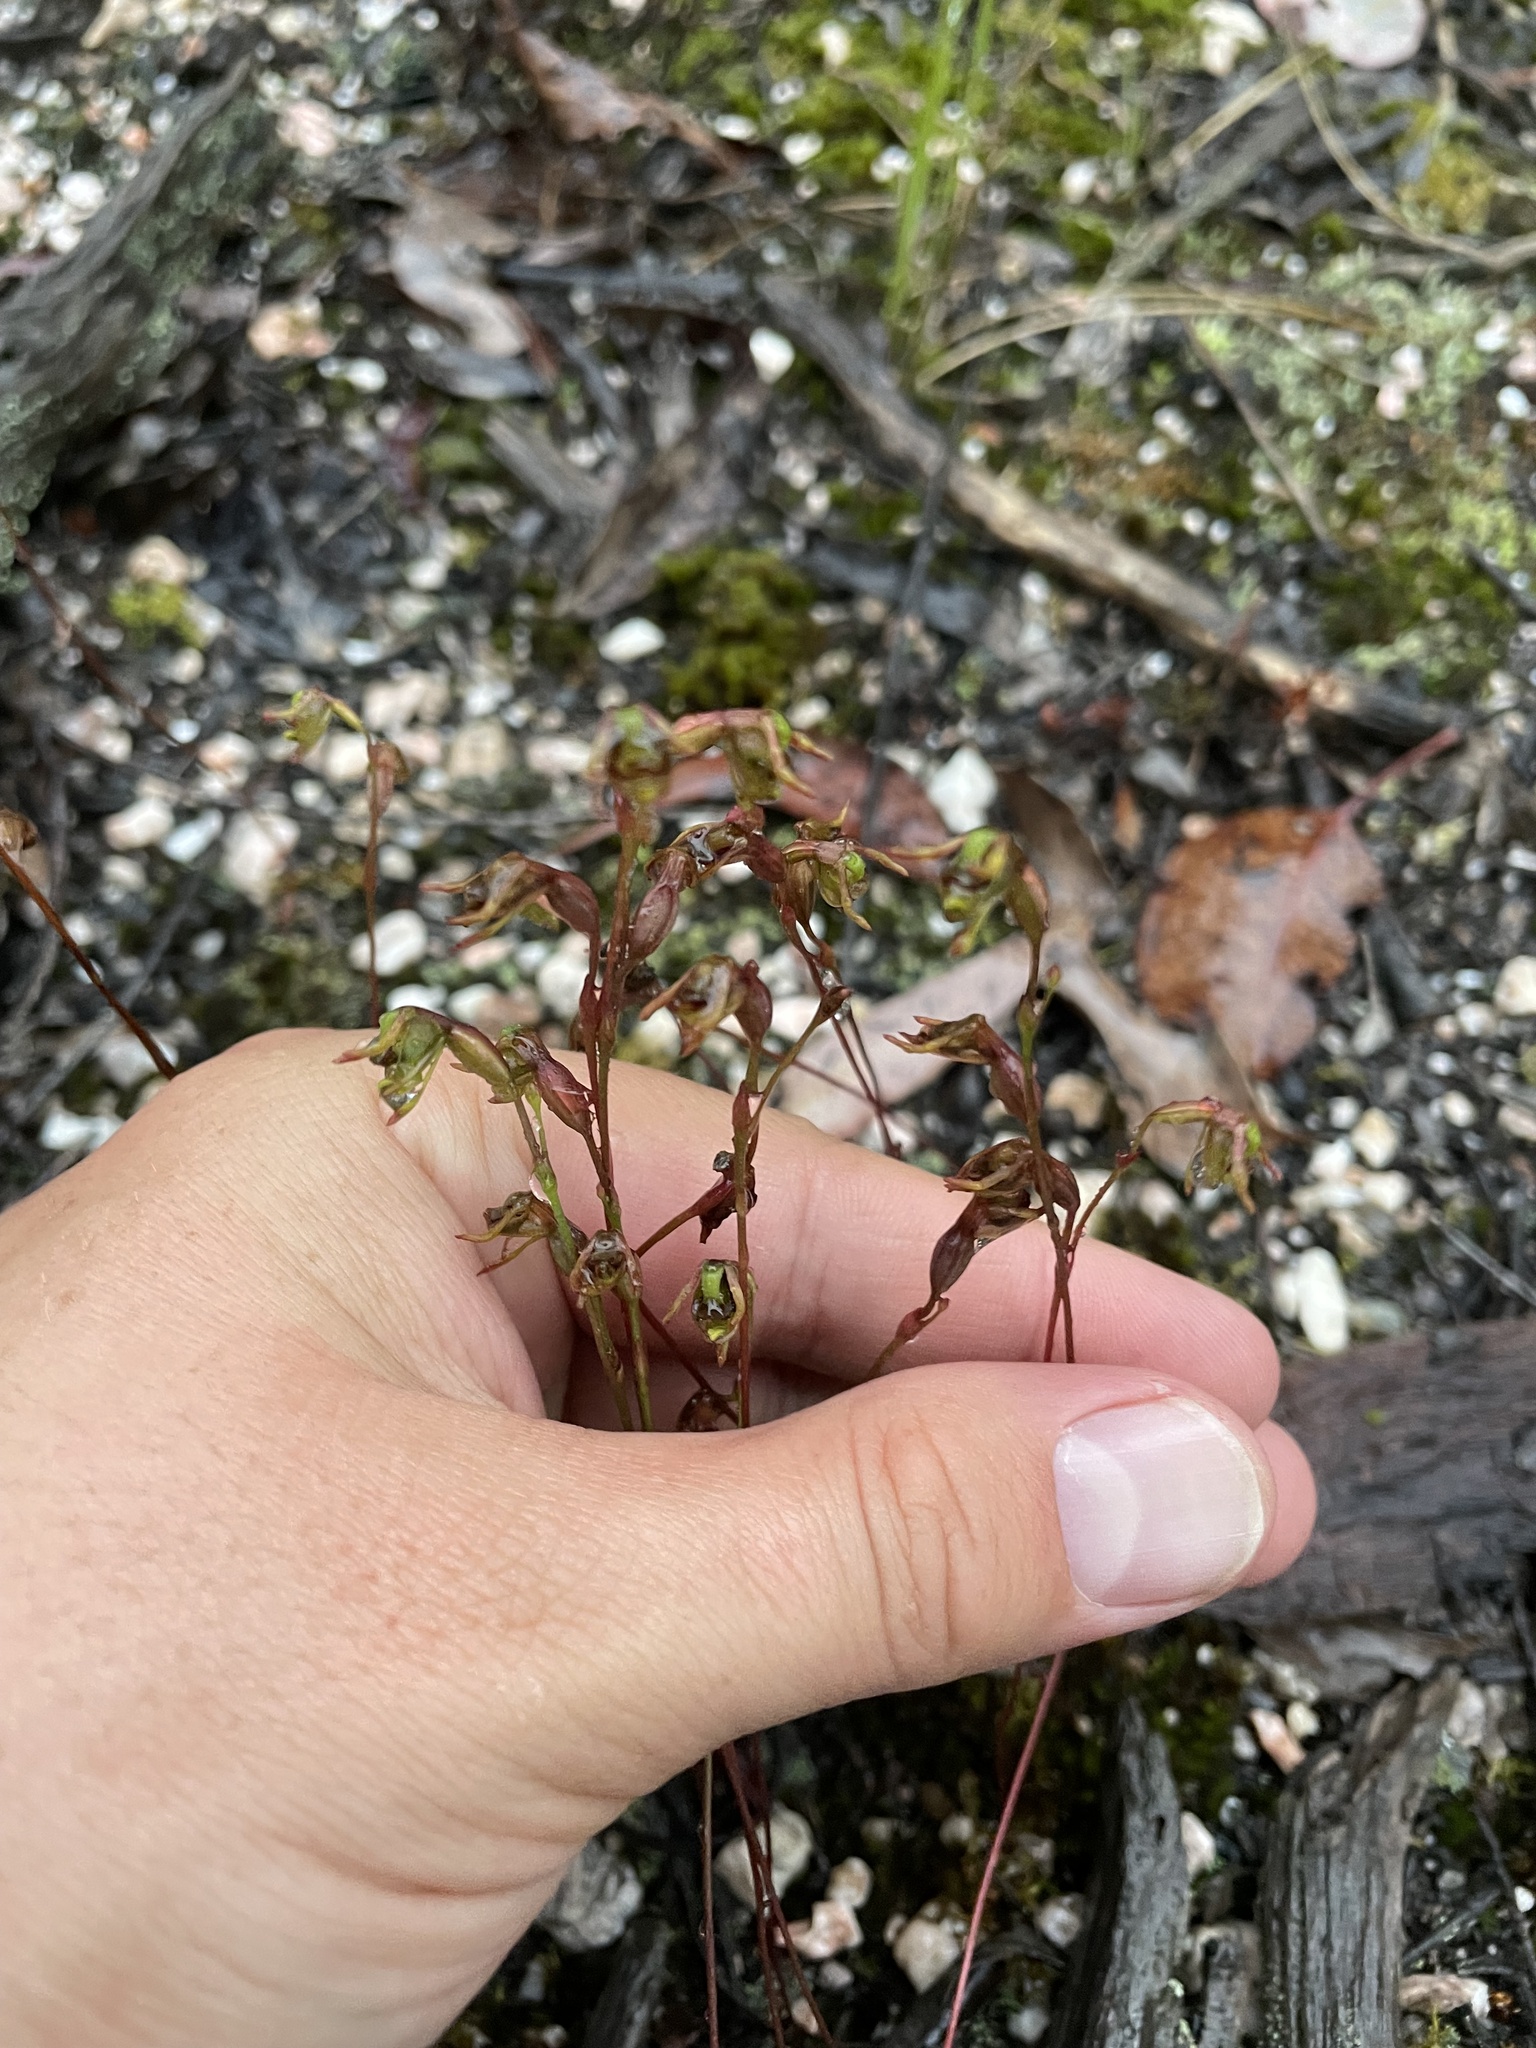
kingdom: Plantae
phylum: Tracheophyta
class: Liliopsida
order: Asparagales
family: Orchidaceae
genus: Caleana
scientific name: Caleana minor
